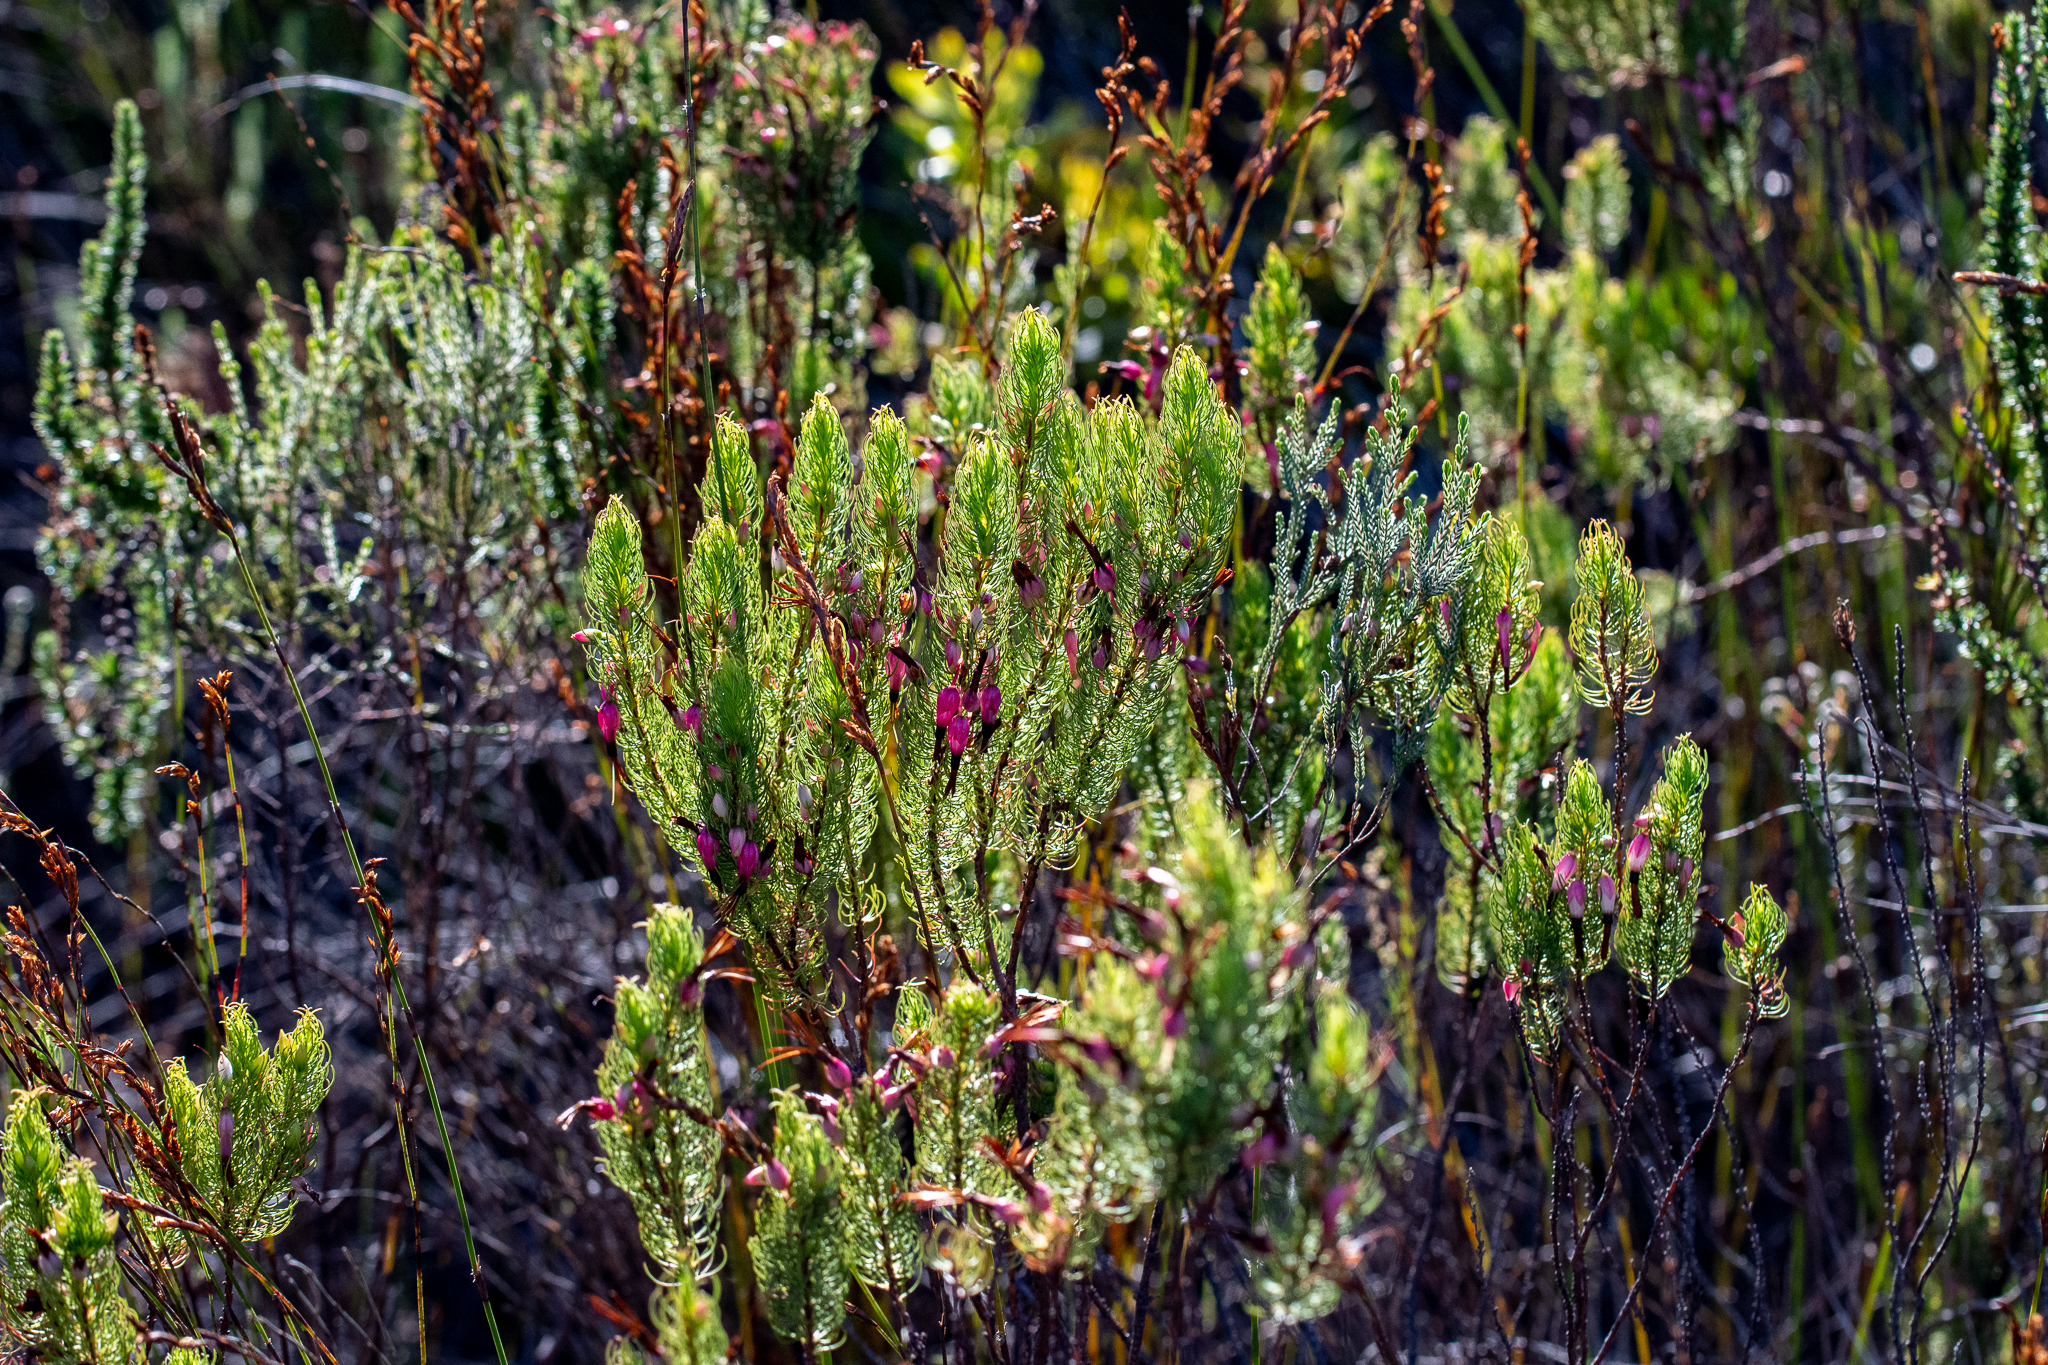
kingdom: Plantae
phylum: Tracheophyta
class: Magnoliopsida
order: Ericales
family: Ericaceae
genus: Erica
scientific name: Erica plukenetii
